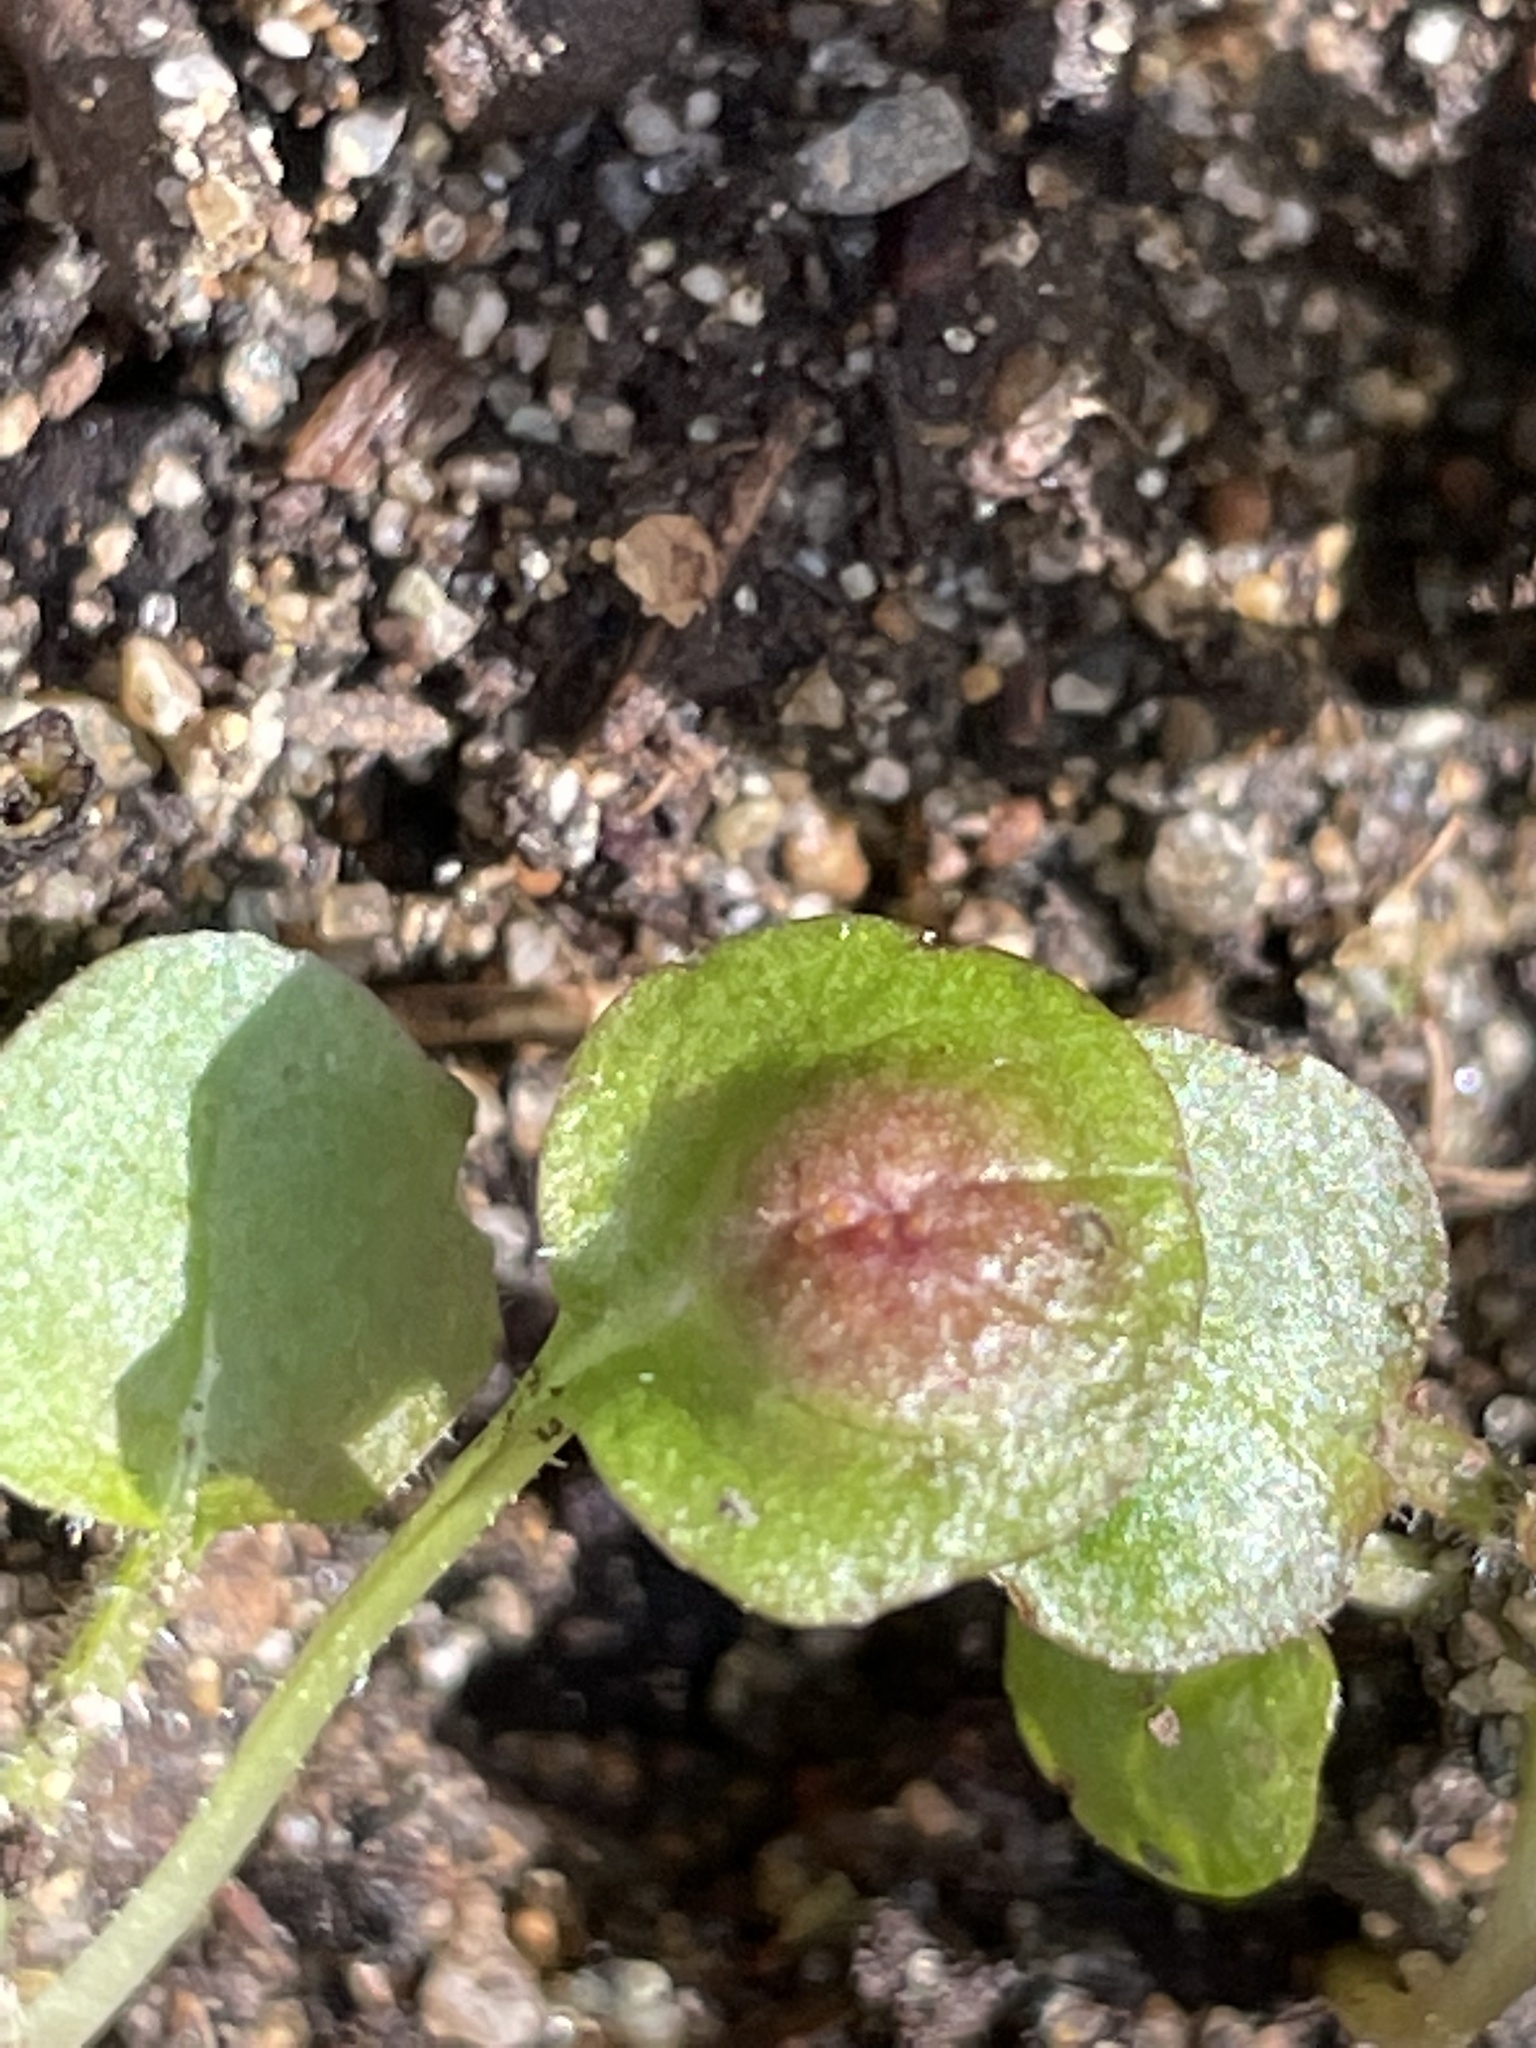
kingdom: Fungi
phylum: Basidiomycota
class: Pucciniomycetes
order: Pucciniales
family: Pucciniaceae
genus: Puccinia
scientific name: Puccinia lapsanae
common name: Nipplewort rust
